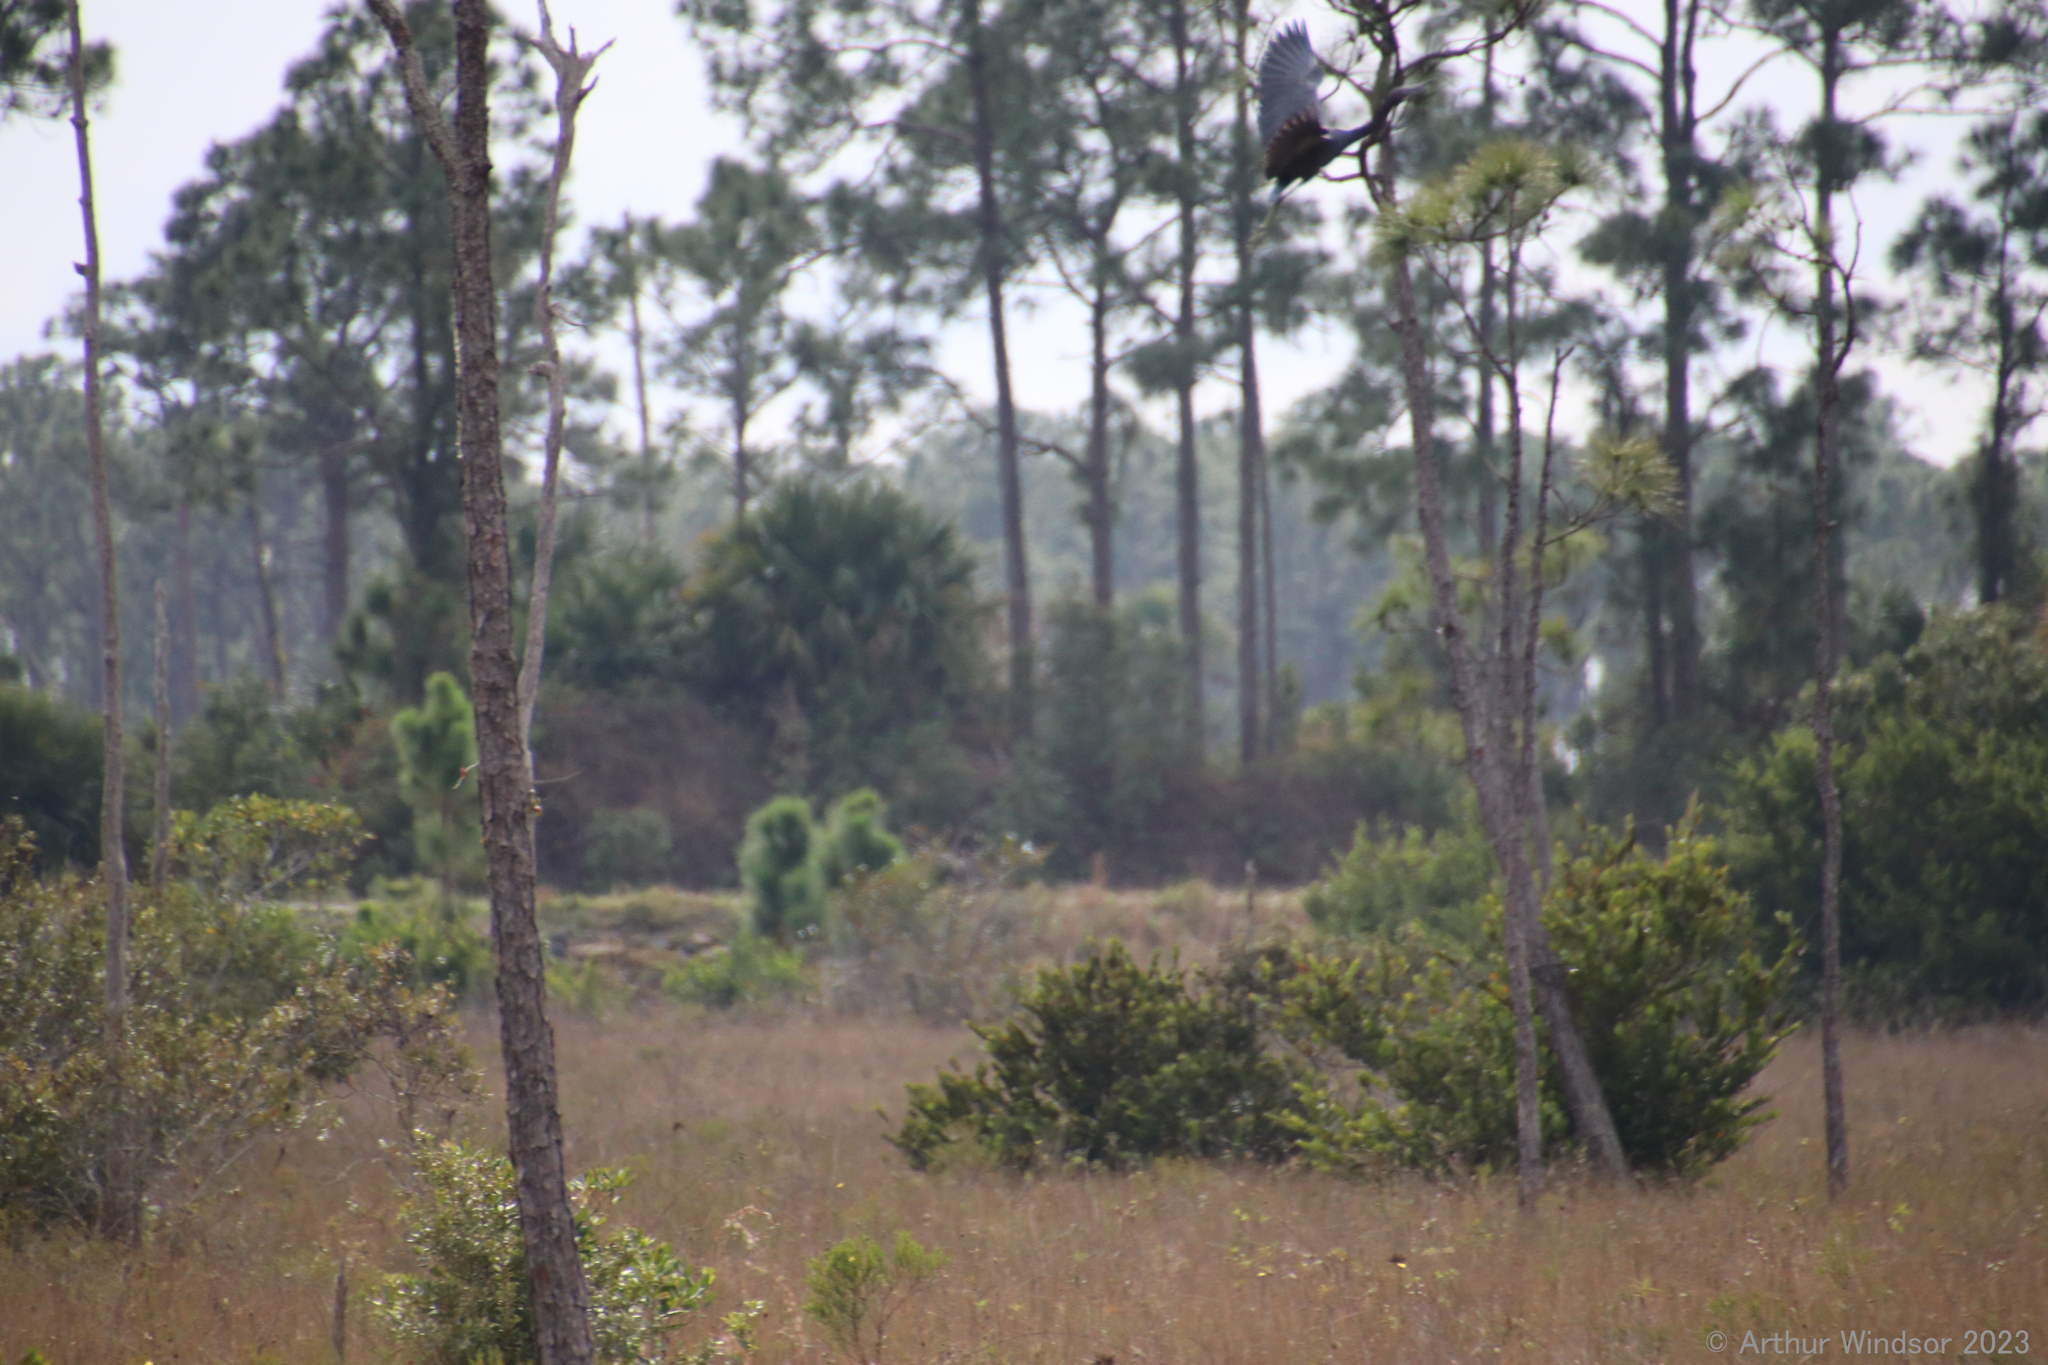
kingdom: Animalia
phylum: Chordata
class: Aves
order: Pelecaniformes
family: Ardeidae
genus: Egretta
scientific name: Egretta caerulea
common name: Little blue heron
